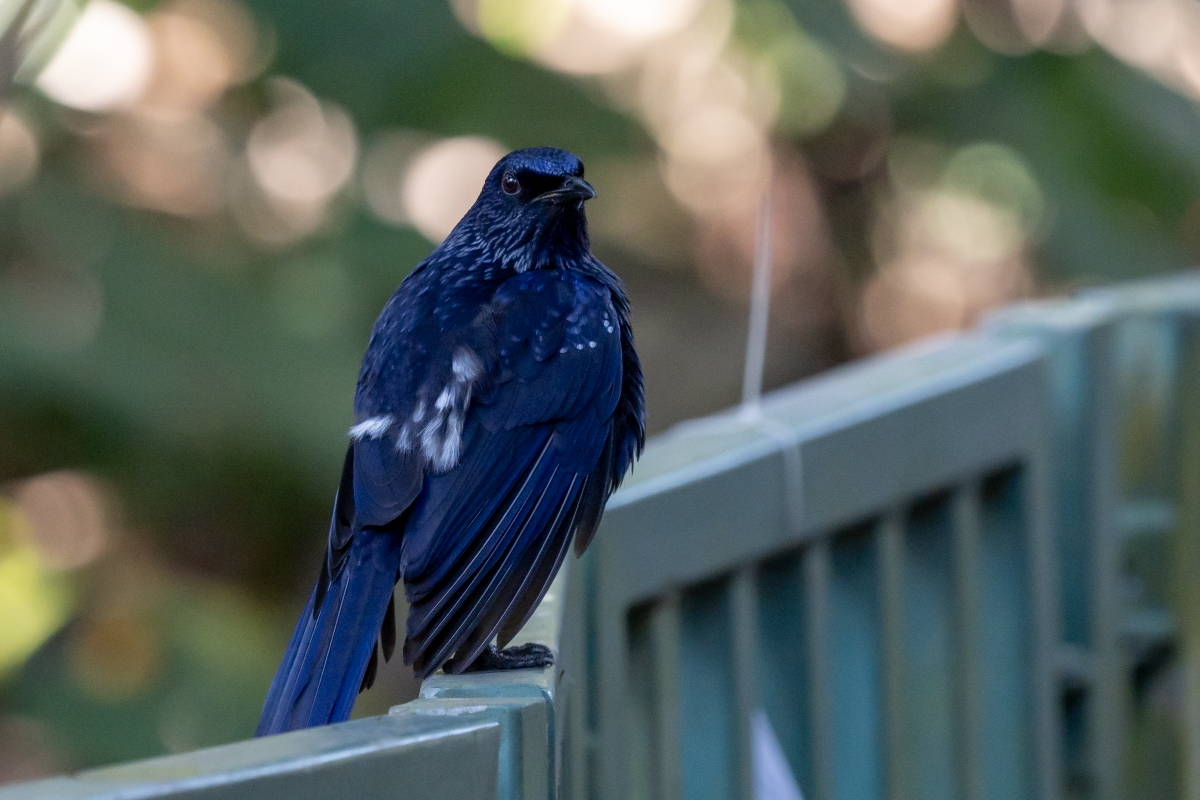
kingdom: Animalia
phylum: Chordata
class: Aves
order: Passeriformes
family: Muscicapidae
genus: Myophonus
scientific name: Myophonus caeruleus
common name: Blue whistling-thrush
